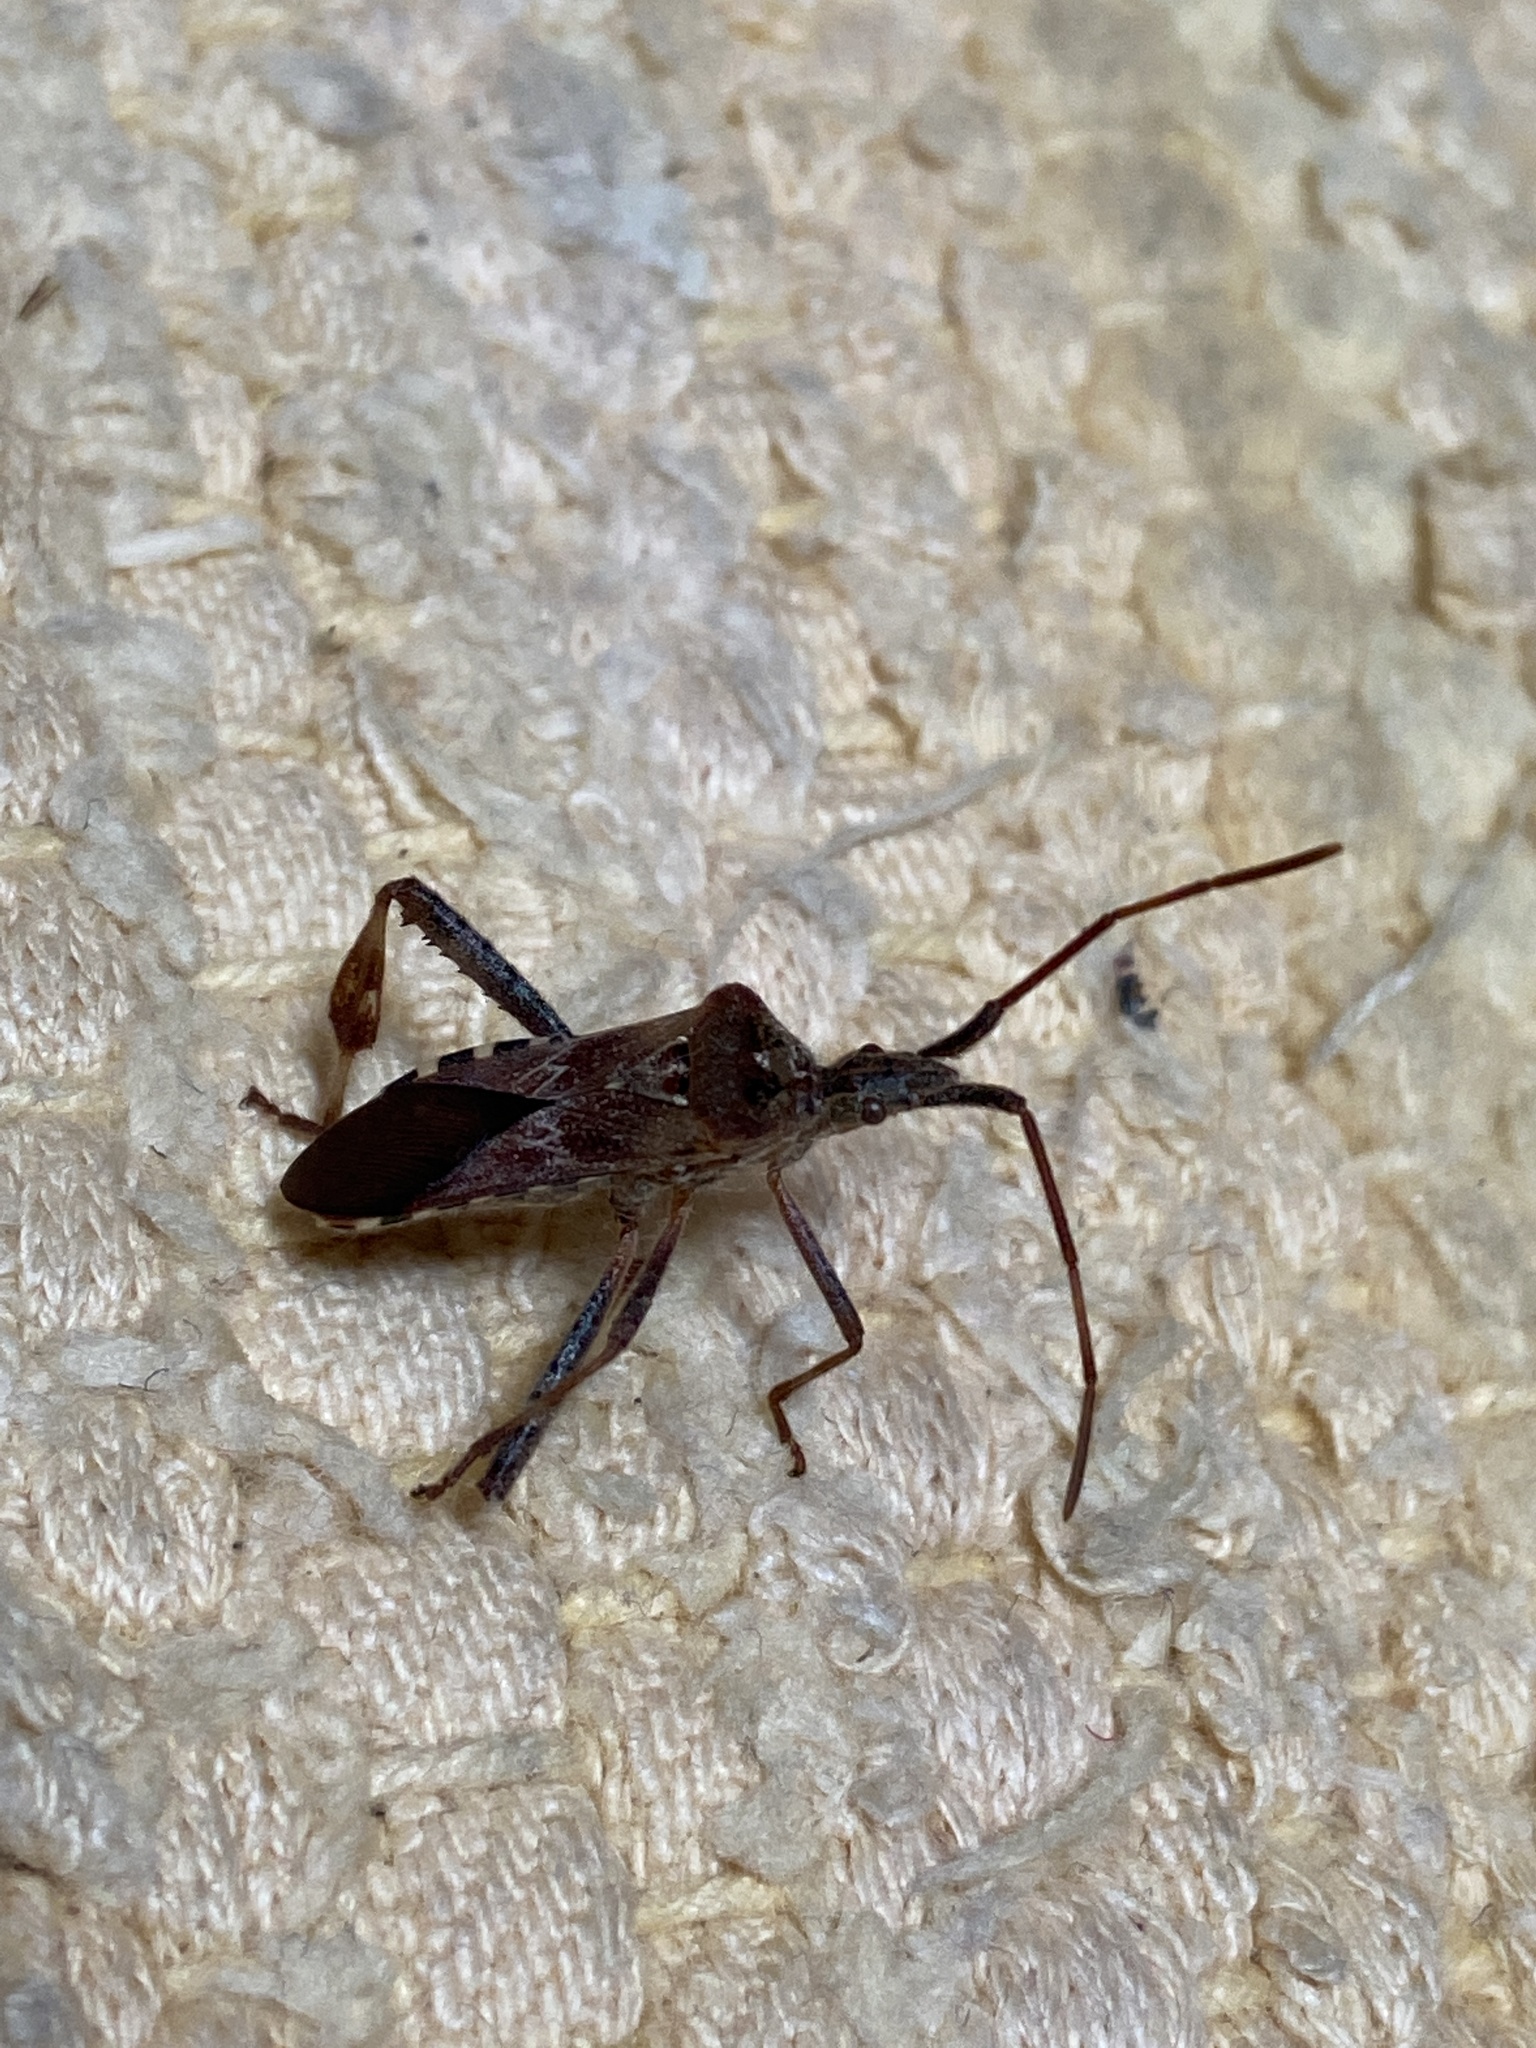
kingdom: Animalia
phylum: Arthropoda
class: Insecta
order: Hemiptera
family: Coreidae
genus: Leptoglossus
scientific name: Leptoglossus occidentalis
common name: Western conifer-seed bug
